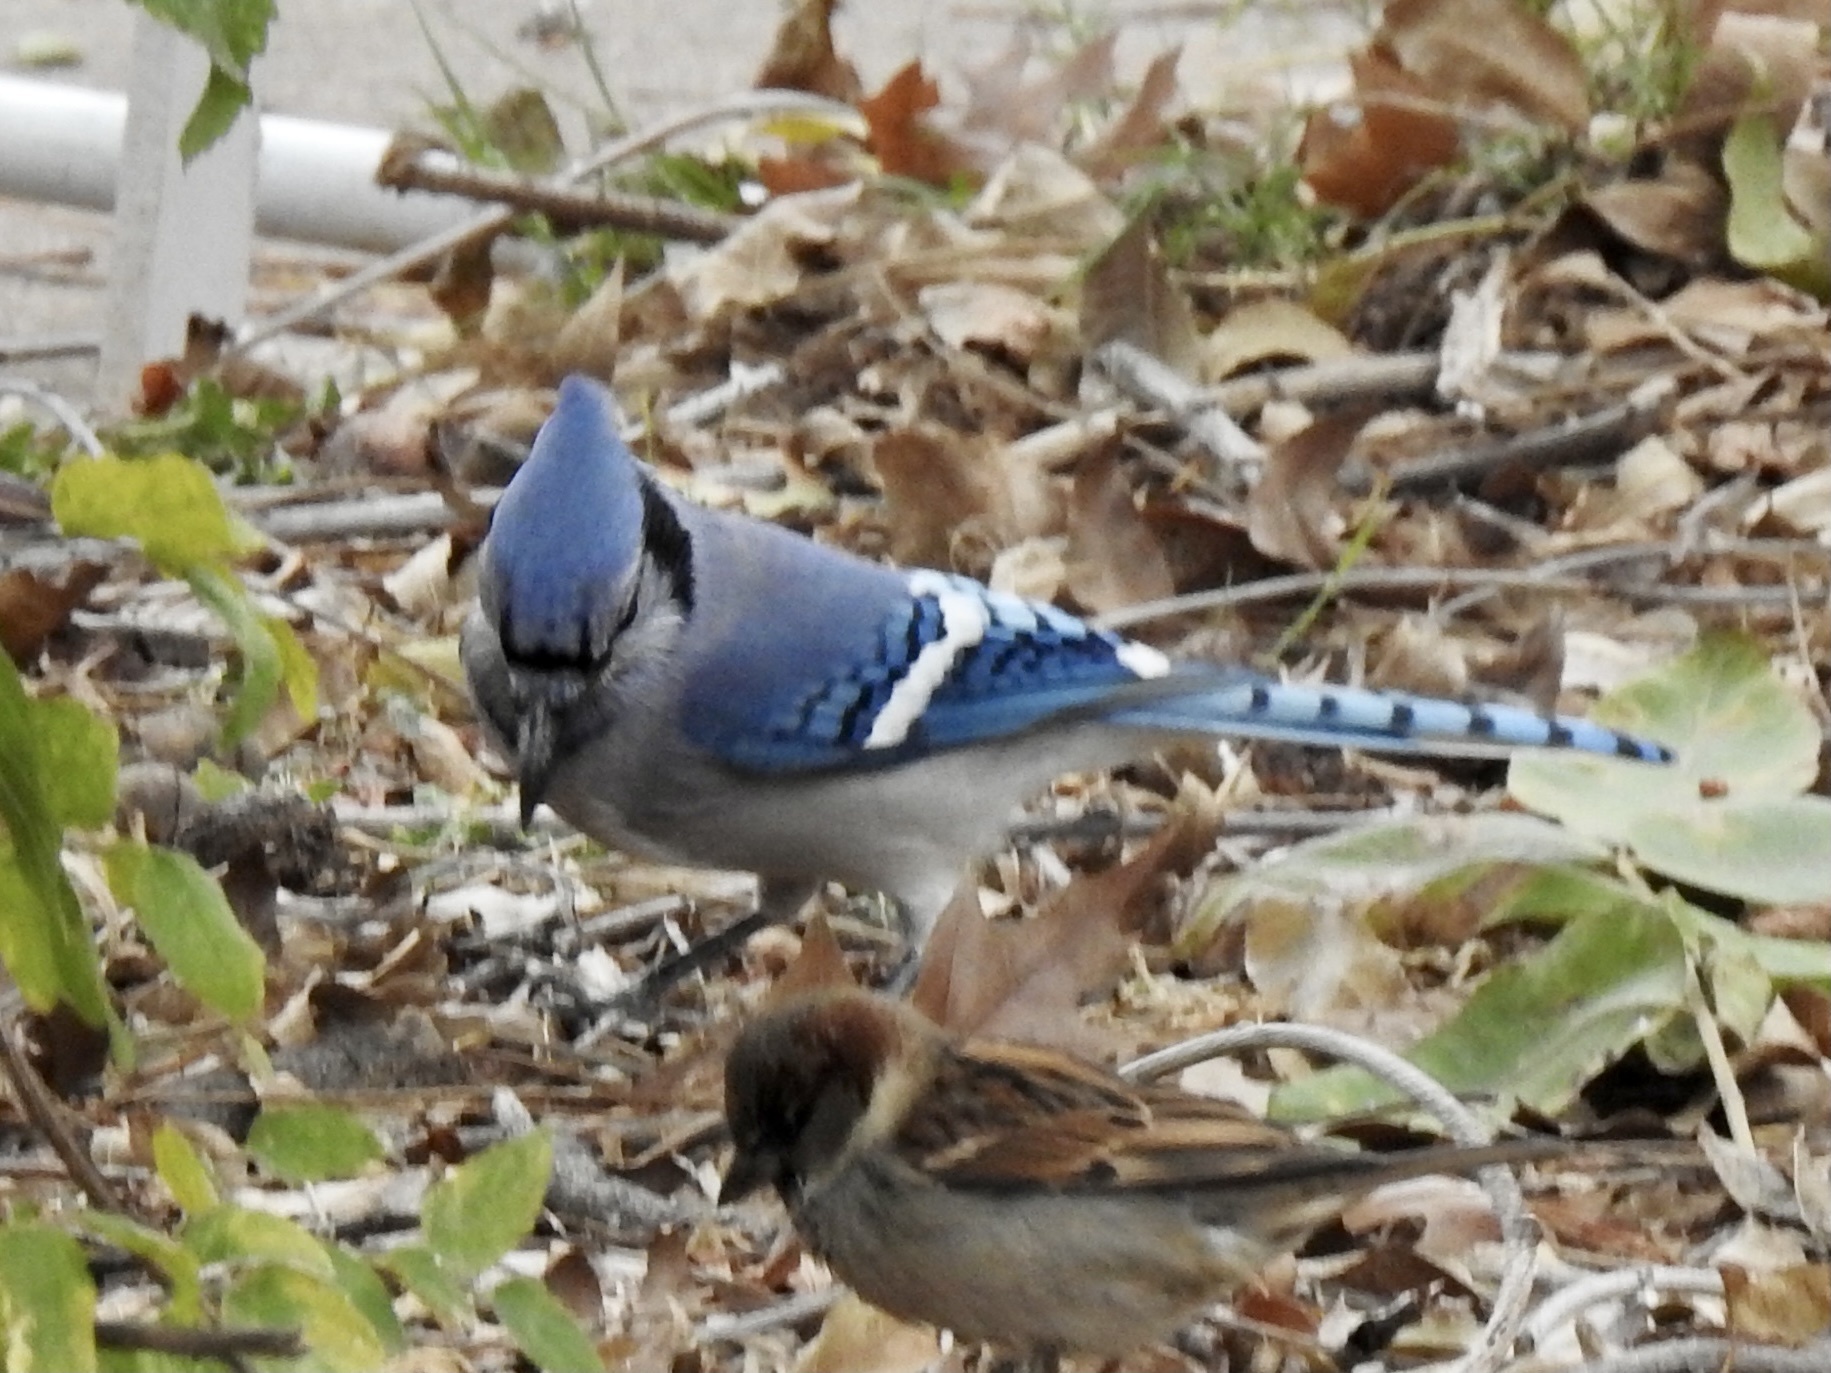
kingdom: Animalia
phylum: Chordata
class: Aves
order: Passeriformes
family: Corvidae
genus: Cyanocitta
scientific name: Cyanocitta cristata
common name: Blue jay
